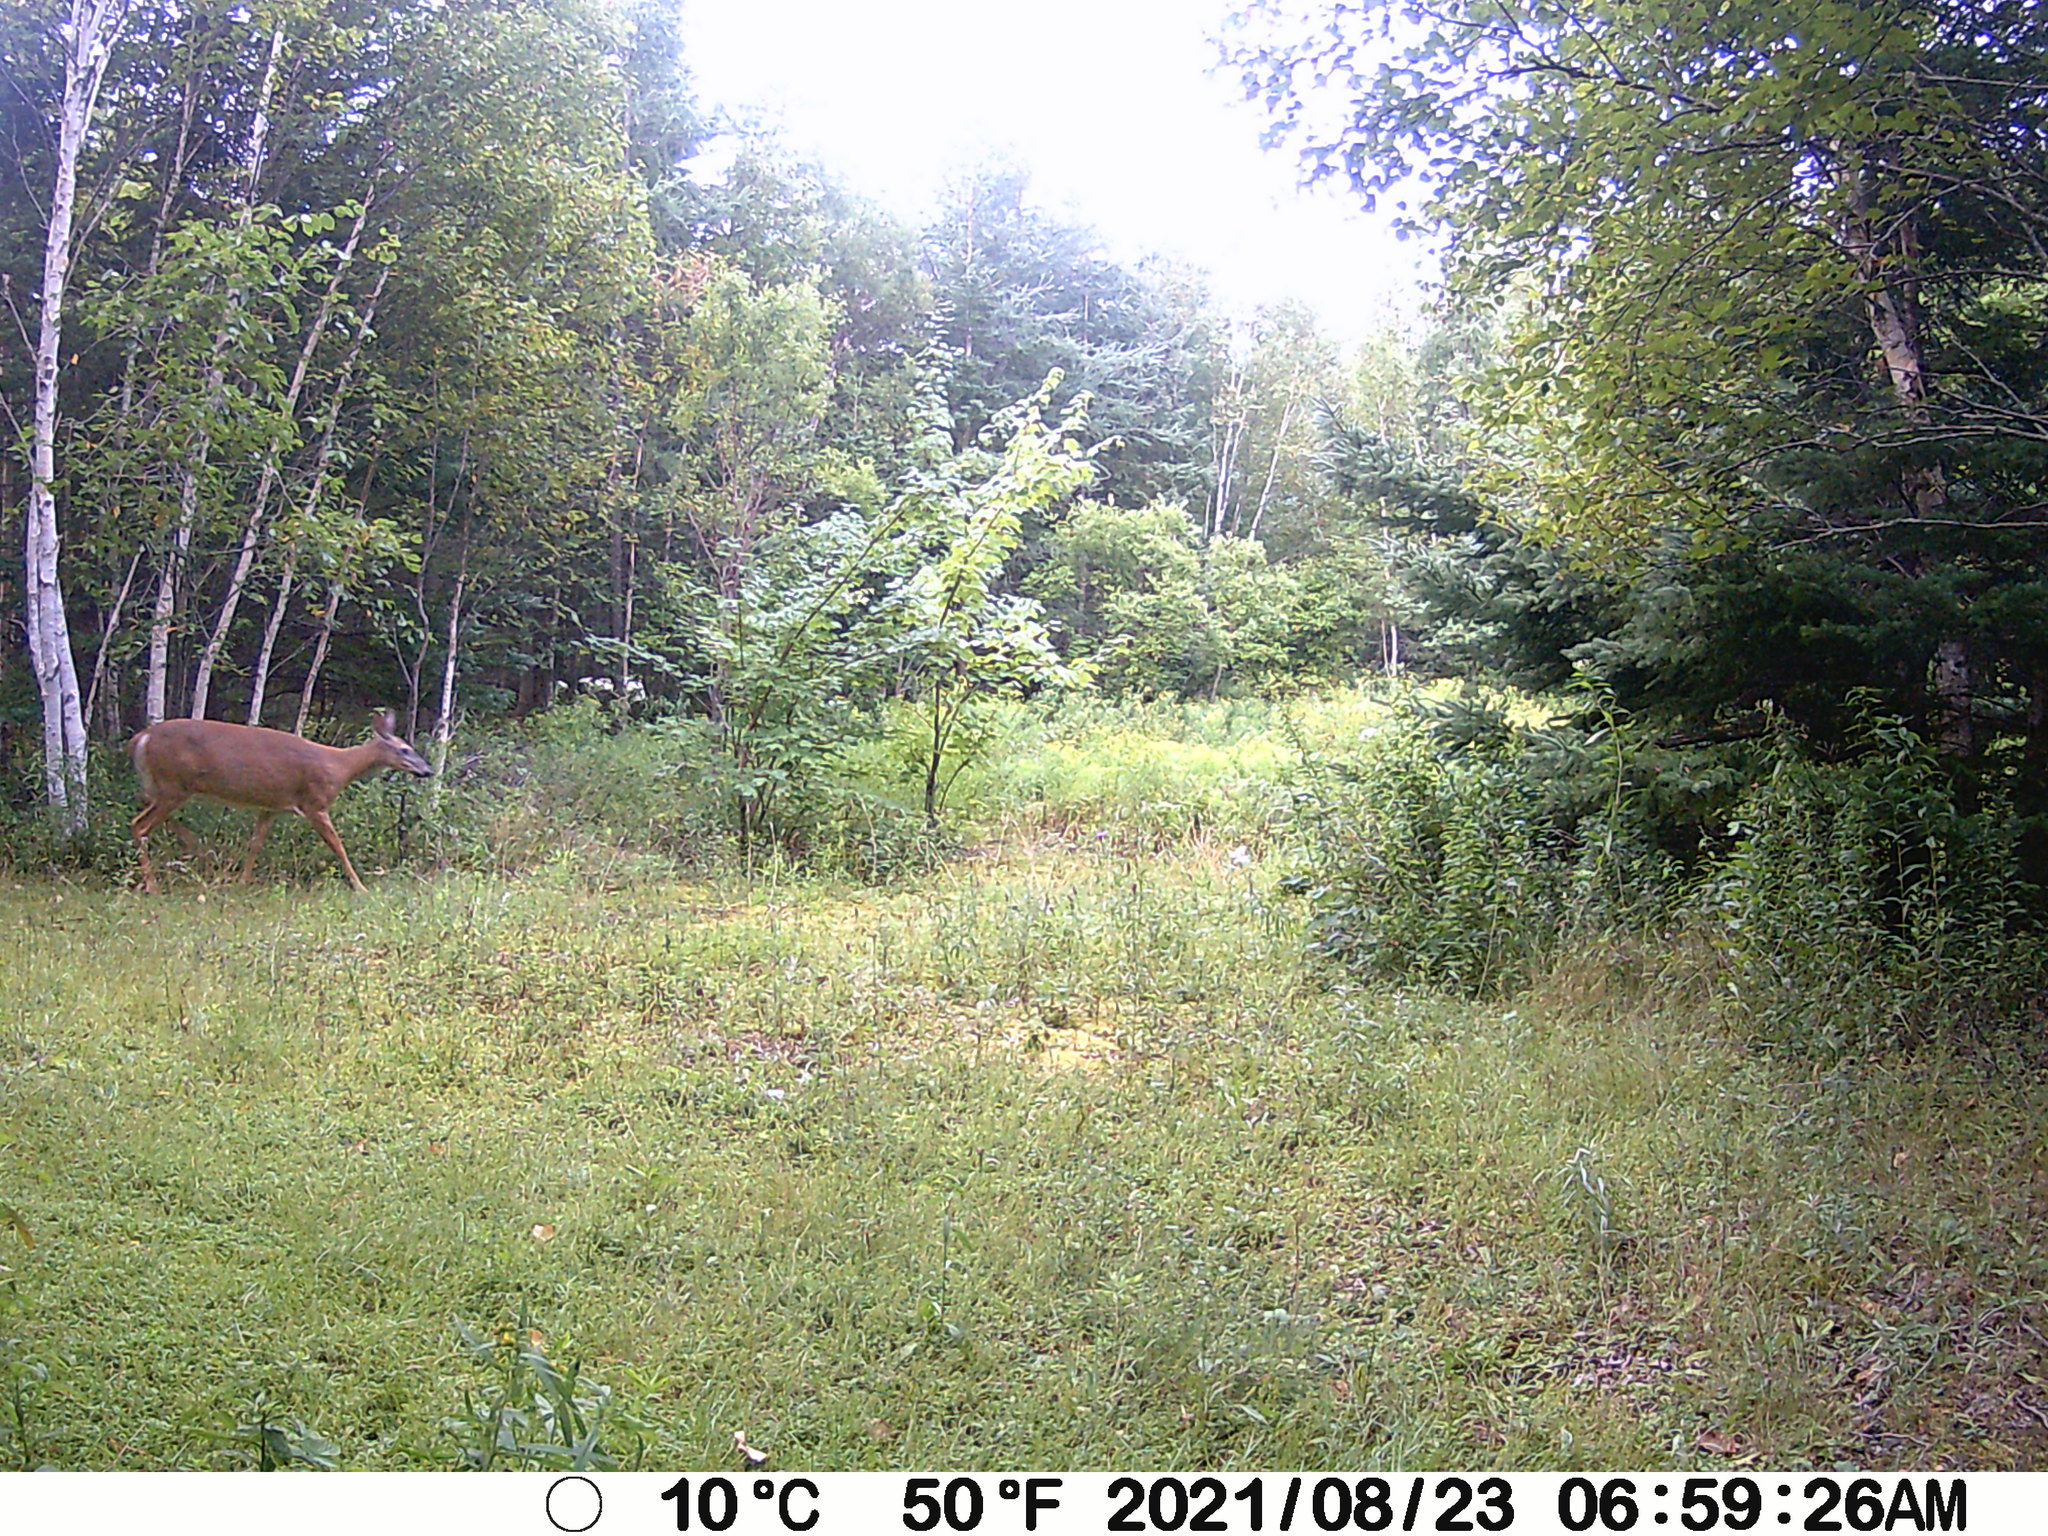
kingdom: Animalia
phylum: Chordata
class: Mammalia
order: Artiodactyla
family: Cervidae
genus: Odocoileus
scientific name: Odocoileus virginianus
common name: White-tailed deer
